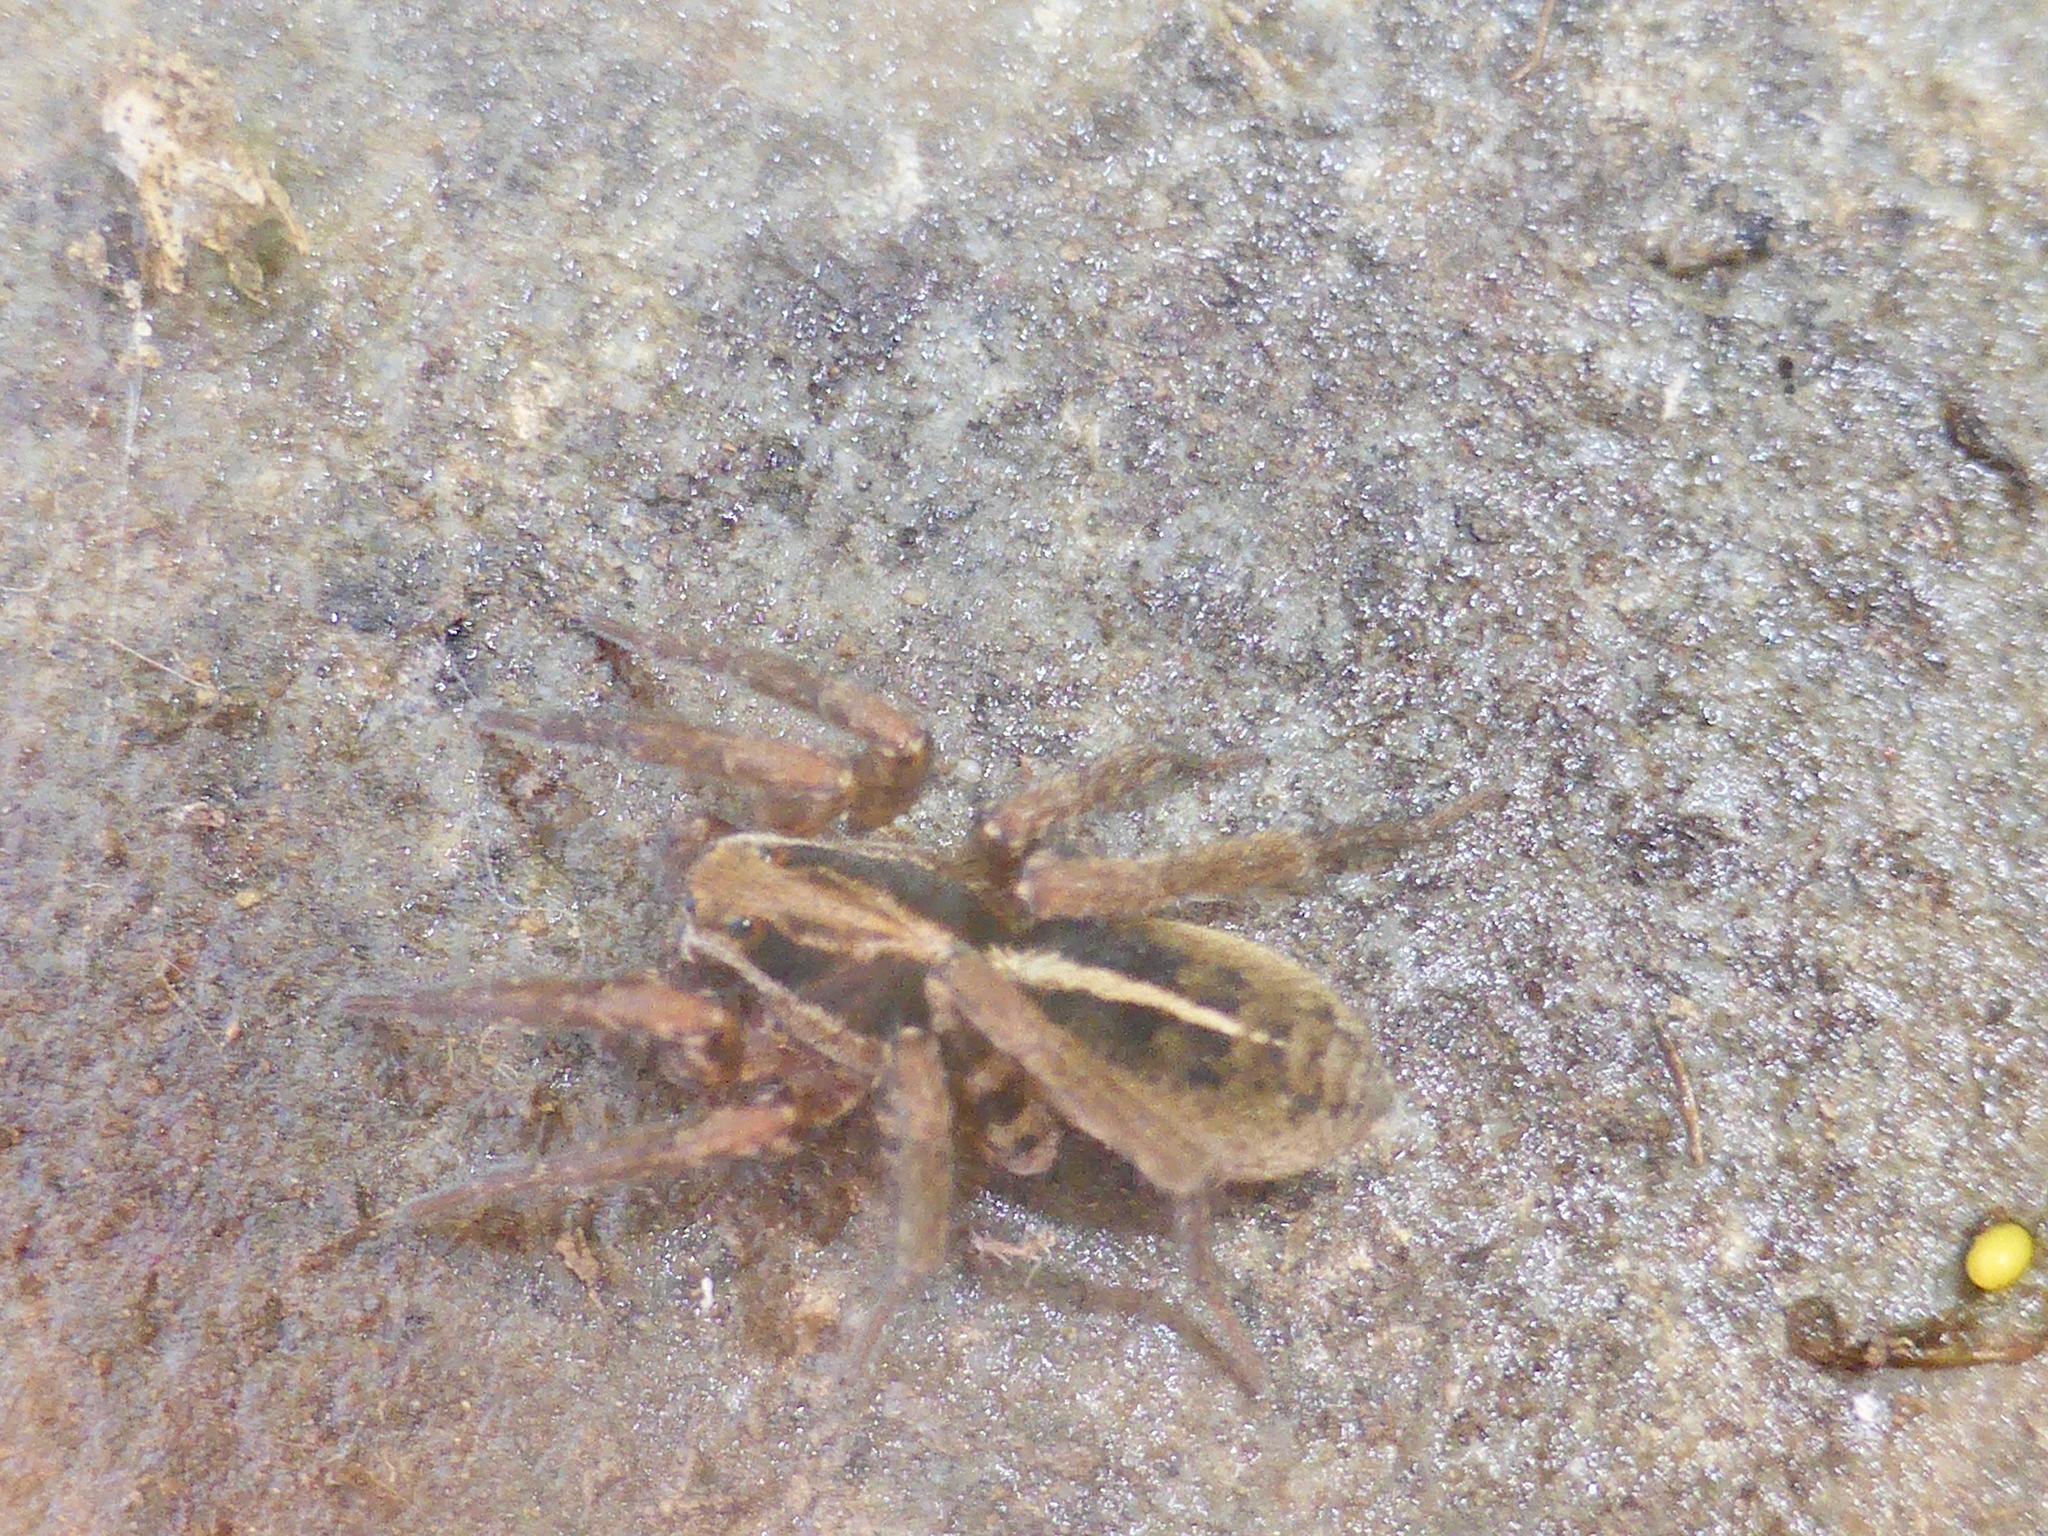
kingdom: Animalia
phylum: Arthropoda
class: Arachnida
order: Araneae
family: Lycosidae
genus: Anoteropsis
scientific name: Anoteropsis hilaris
